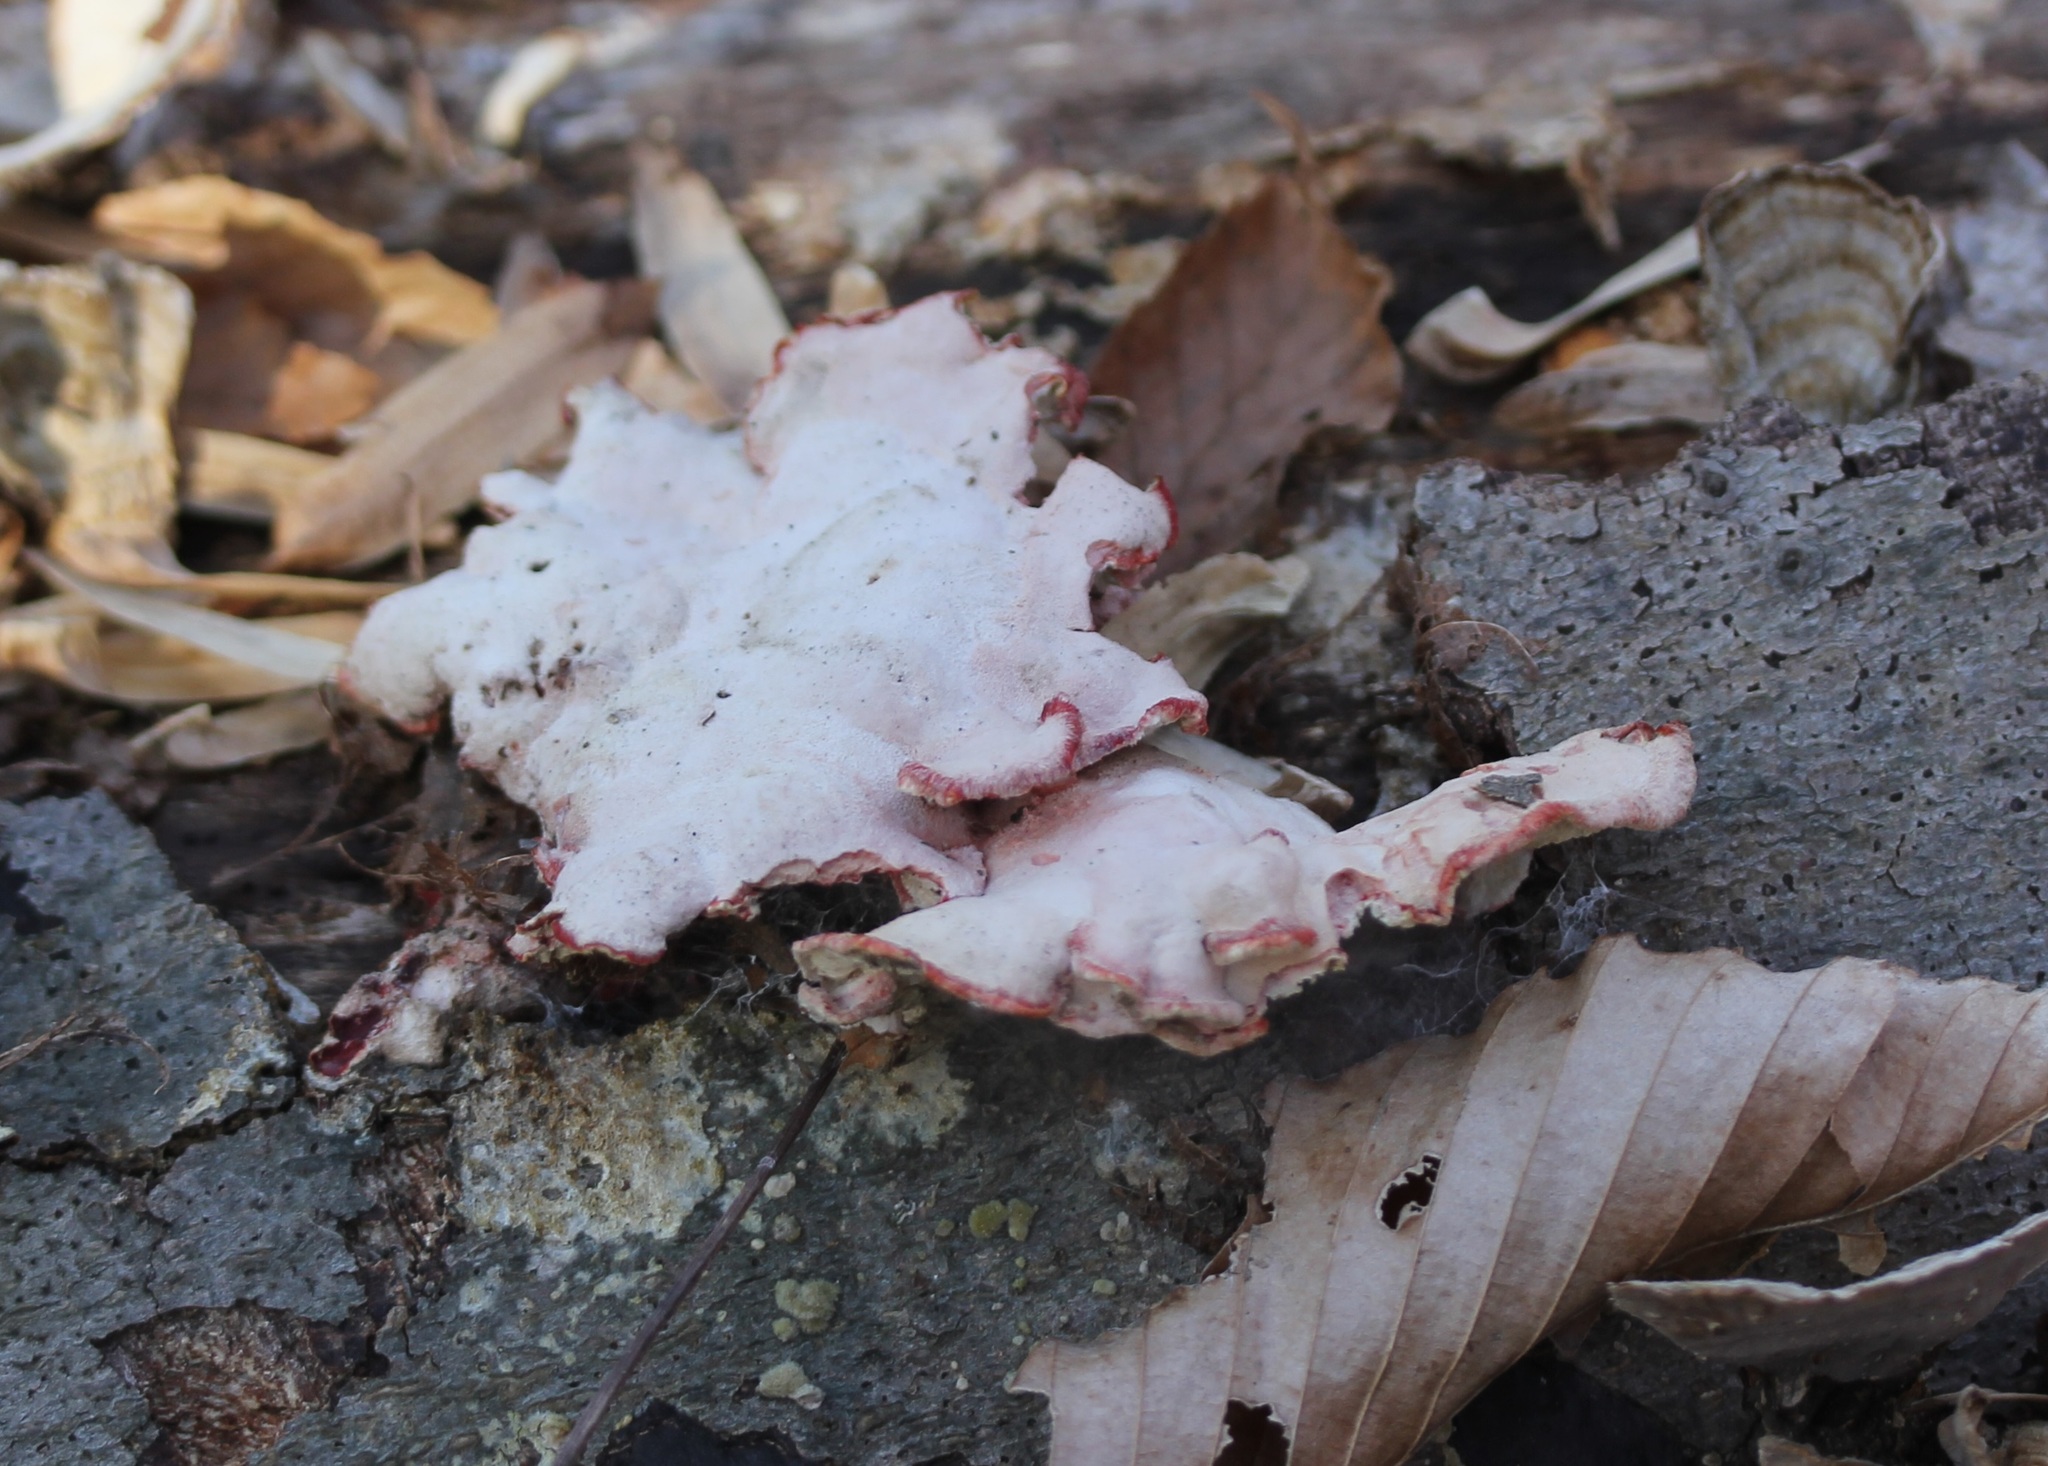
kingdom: Fungi
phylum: Basidiomycota
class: Agaricomycetes
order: Polyporales
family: Irpicaceae
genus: Byssomerulius
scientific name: Byssomerulius incarnatus
